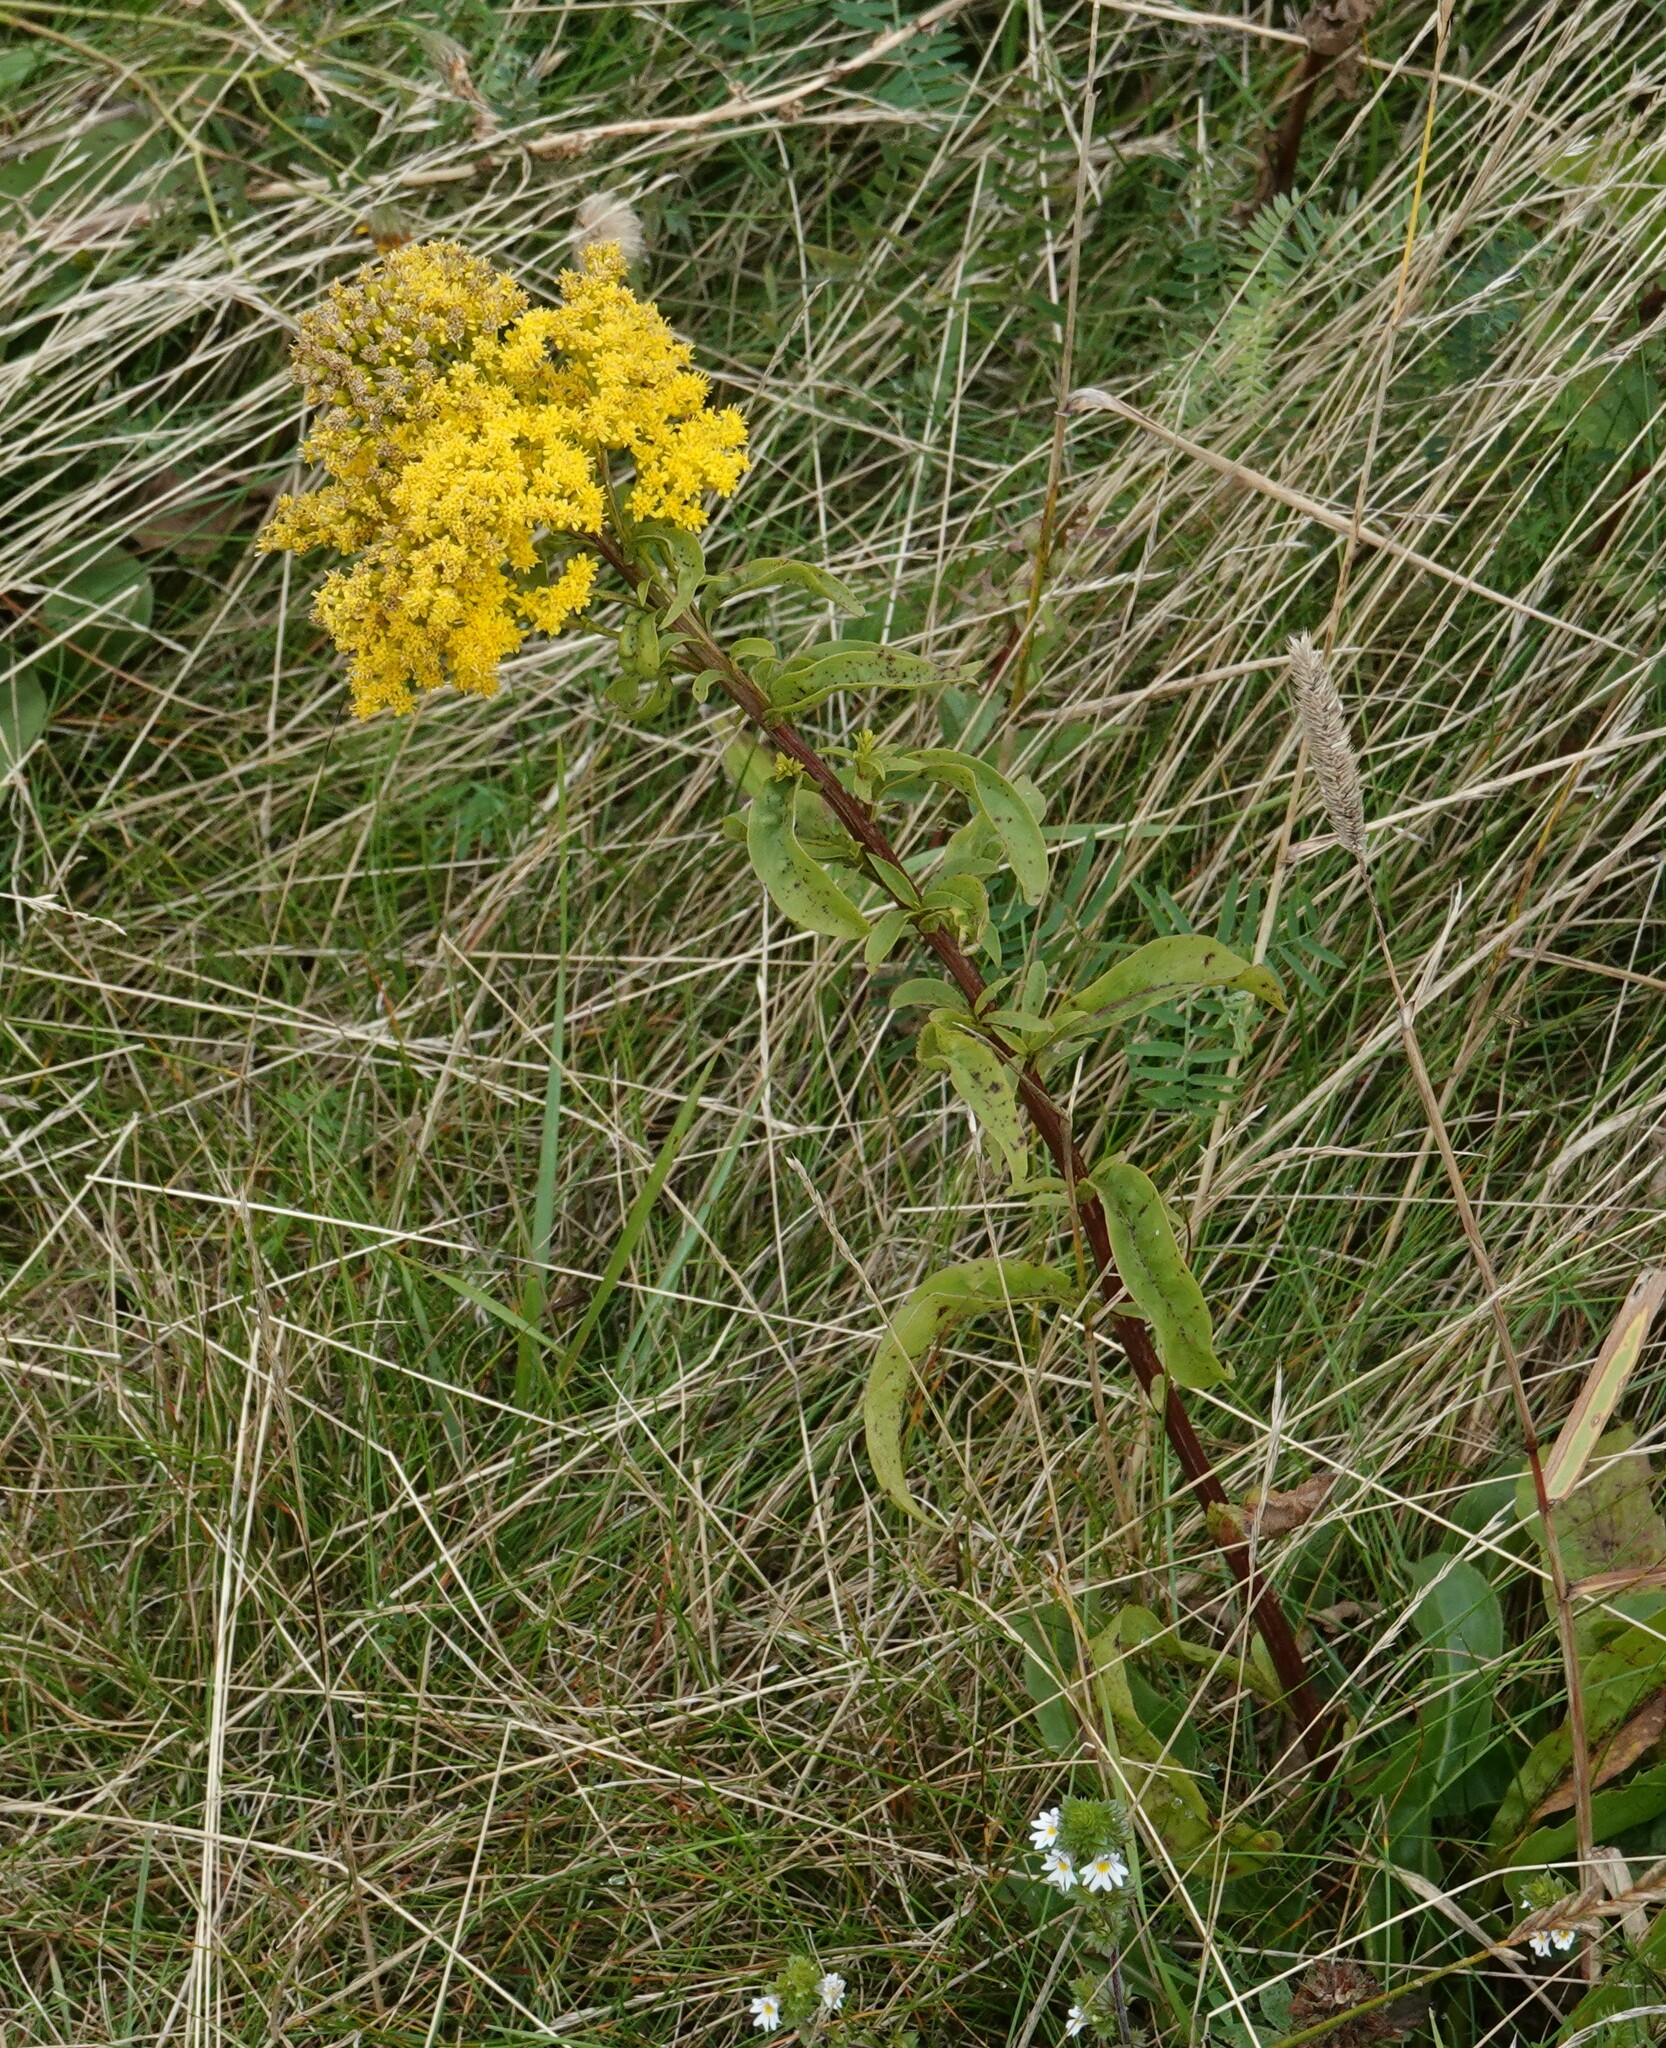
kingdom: Plantae
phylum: Tracheophyta
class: Magnoliopsida
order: Asterales
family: Asteraceae
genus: Solidago
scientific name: Solidago sempervirens
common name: Salt-marsh goldenrod
